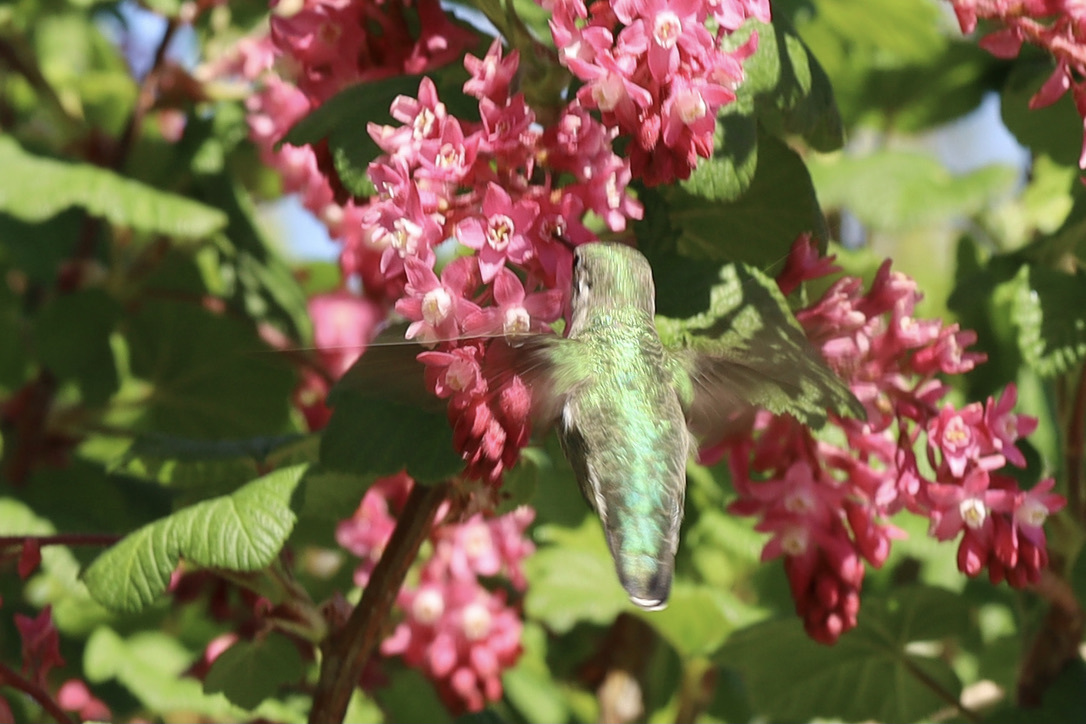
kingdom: Animalia
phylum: Chordata
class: Aves
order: Apodiformes
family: Trochilidae
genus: Calypte
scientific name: Calypte anna
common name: Anna's hummingbird
